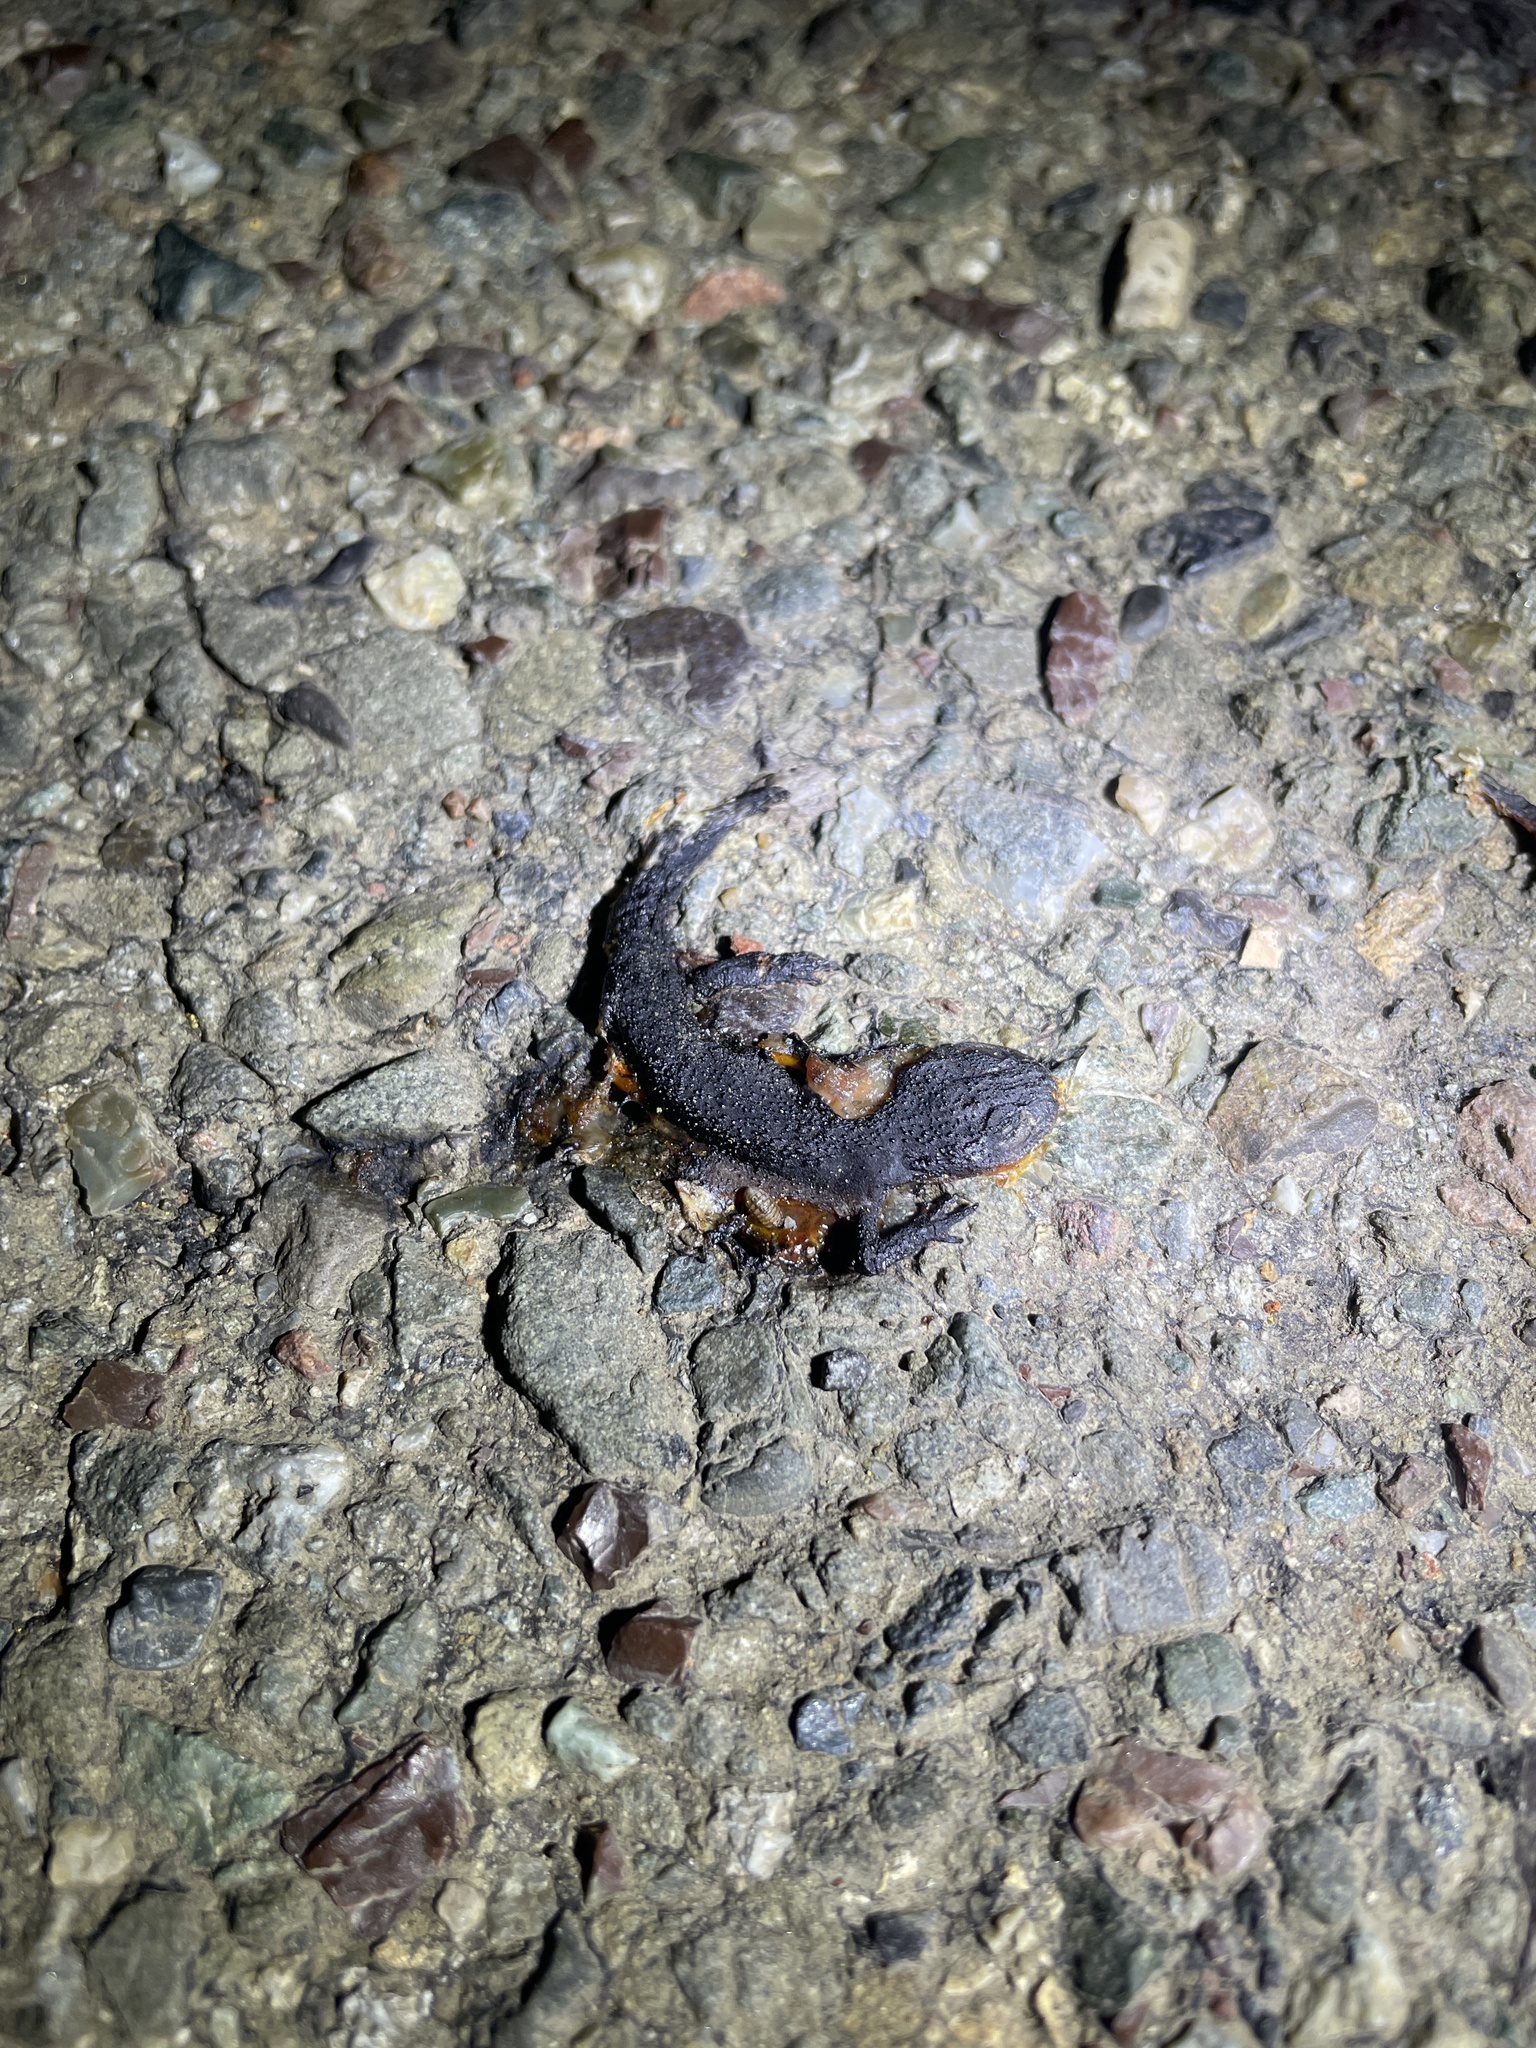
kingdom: Animalia
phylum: Chordata
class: Amphibia
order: Caudata
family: Salamandridae
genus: Taricha
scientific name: Taricha granulosa
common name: Roughskin newt
